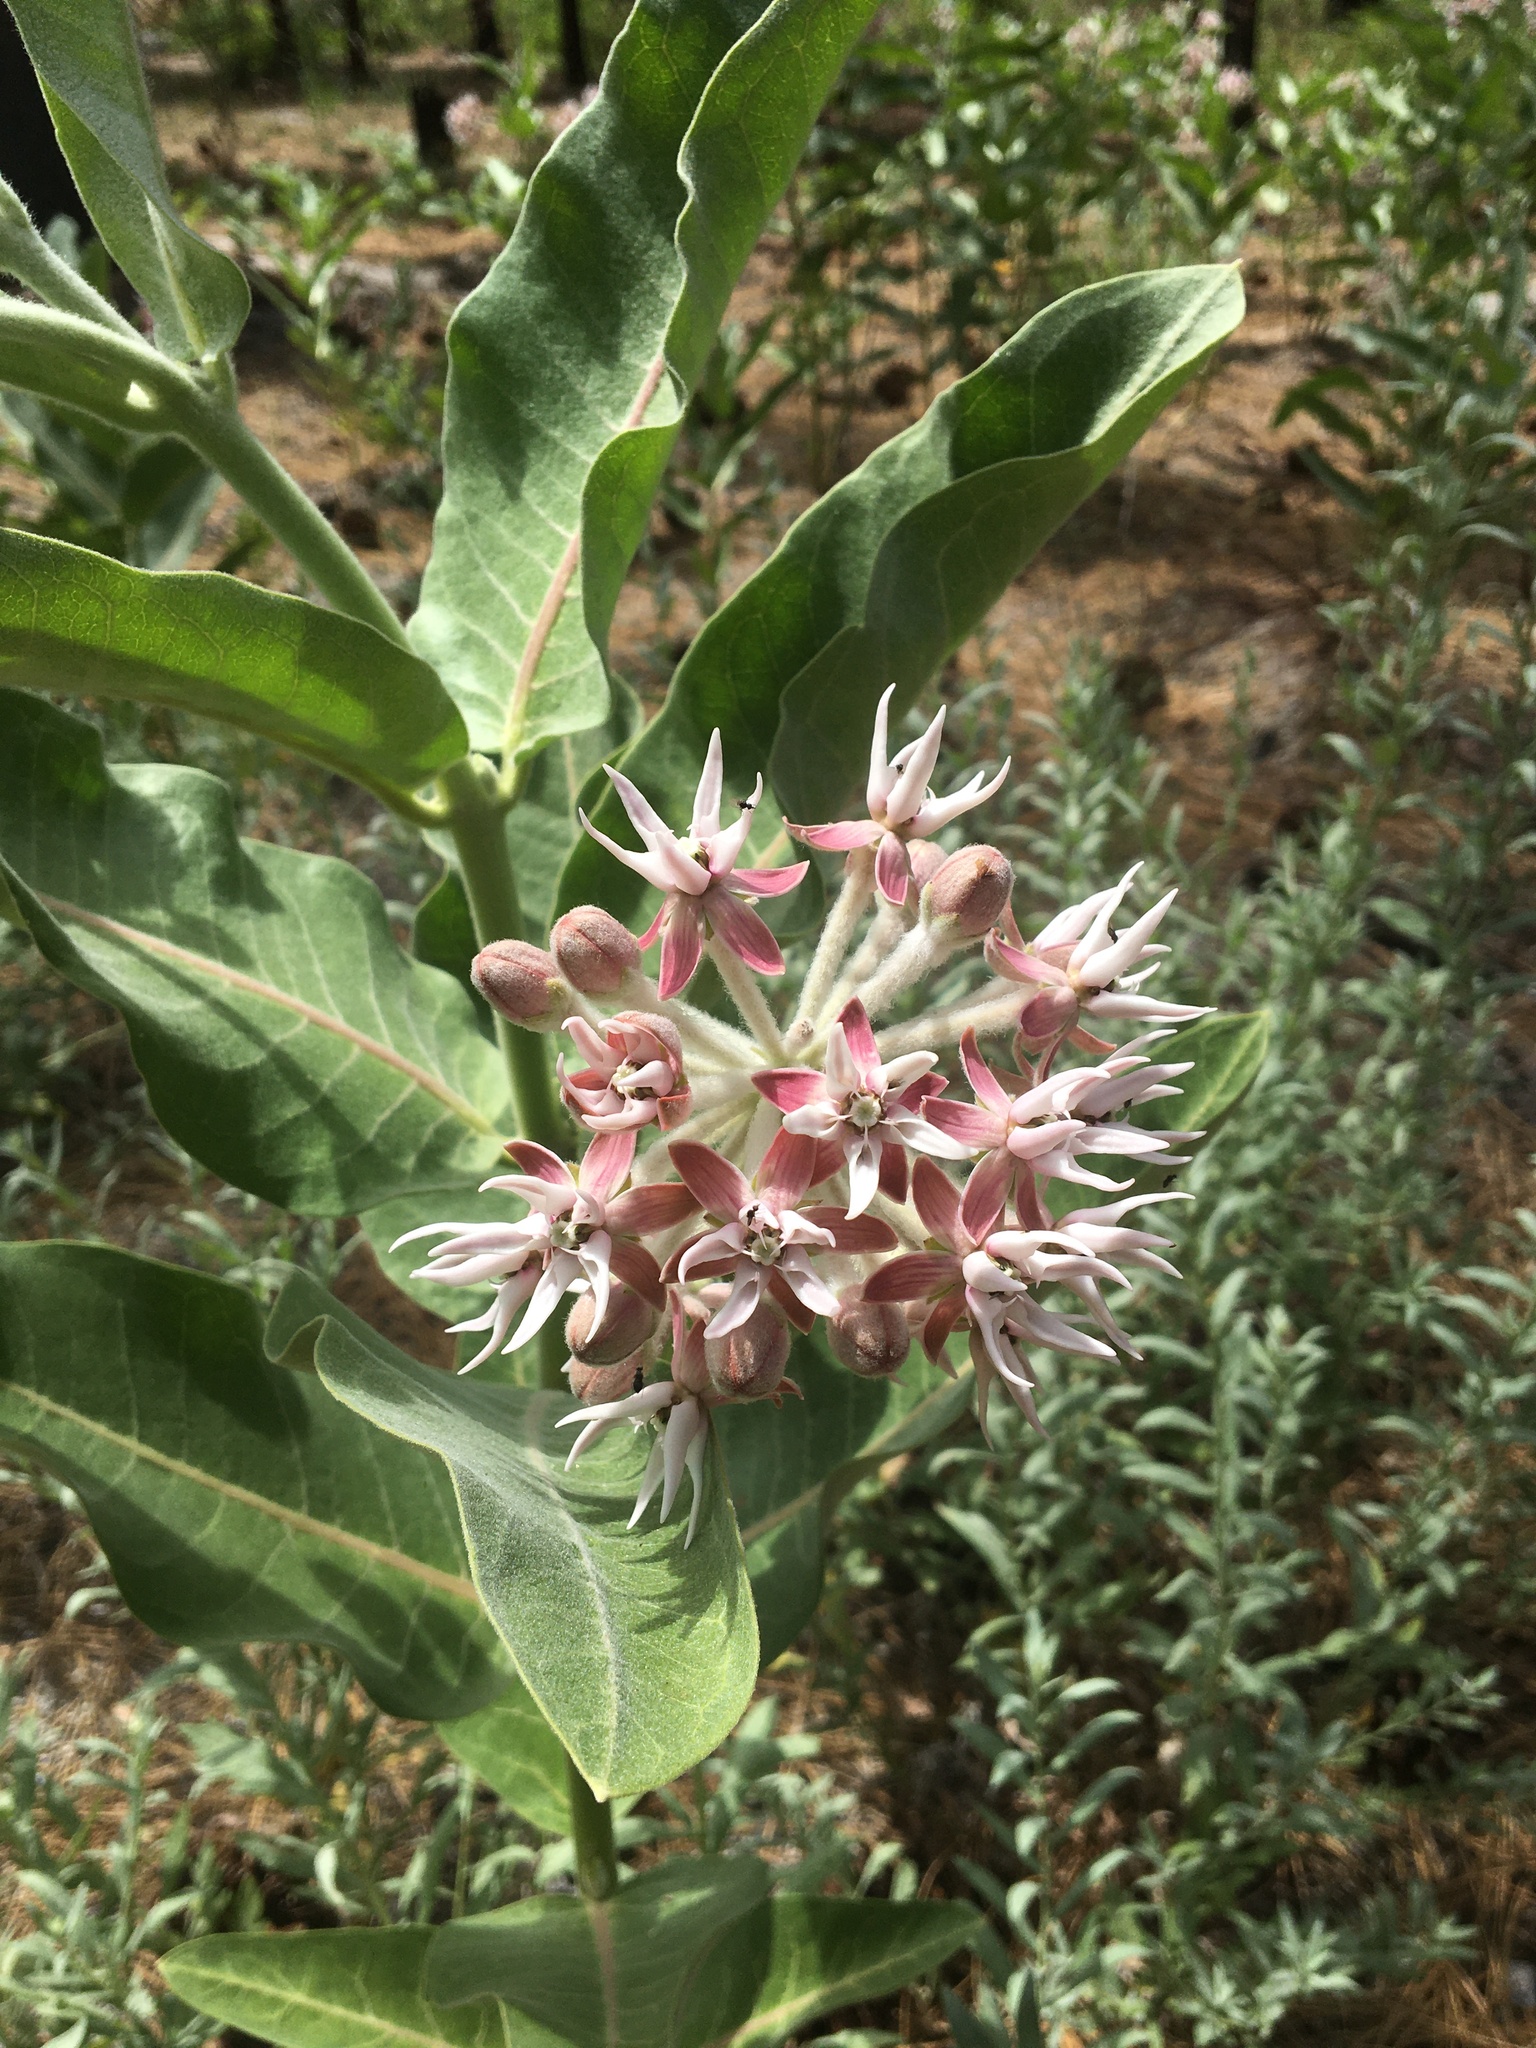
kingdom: Plantae
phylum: Tracheophyta
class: Magnoliopsida
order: Gentianales
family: Apocynaceae
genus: Asclepias
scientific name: Asclepias speciosa
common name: Showy milkweed
